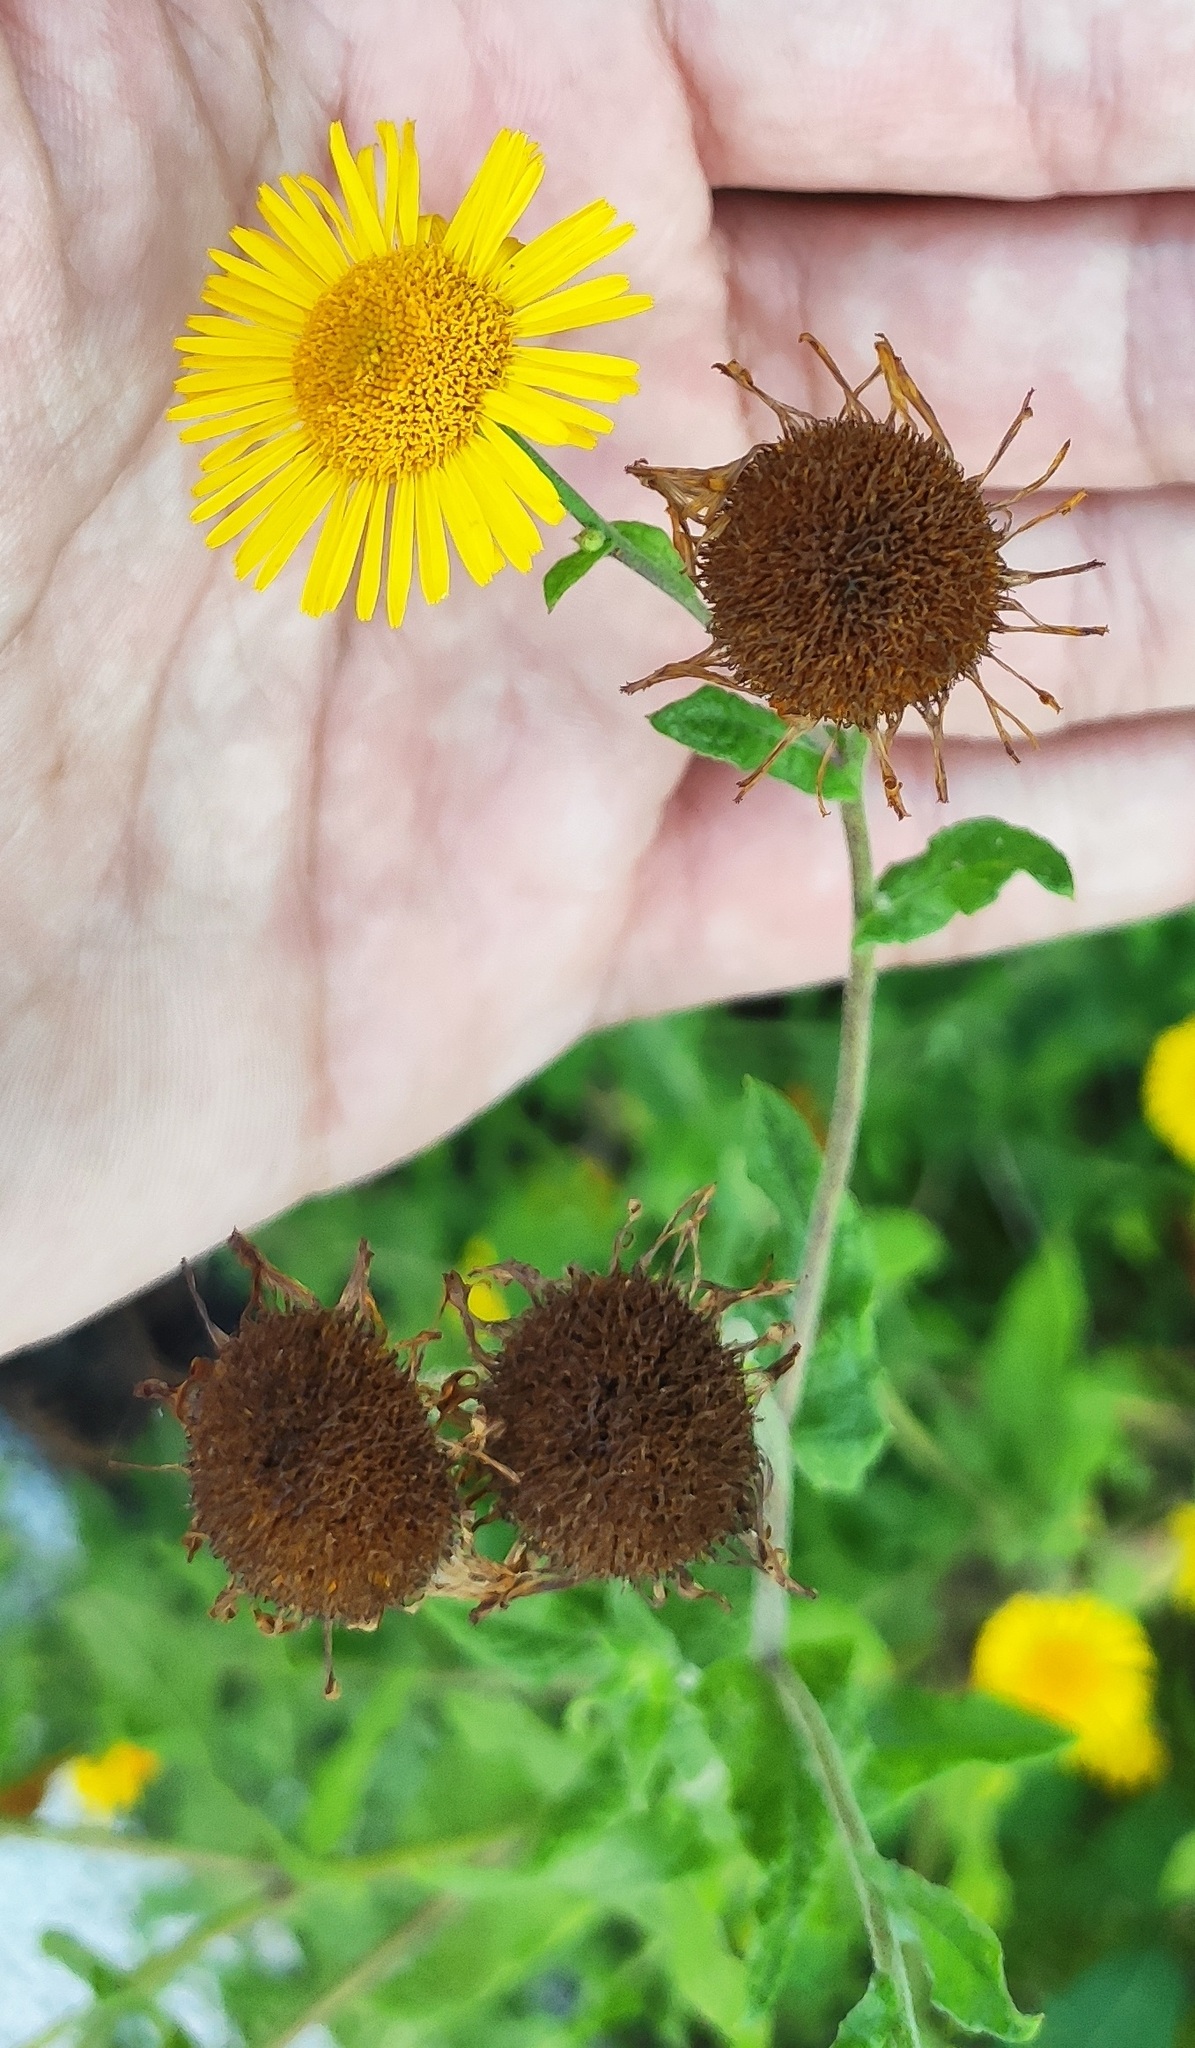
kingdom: Plantae
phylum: Tracheophyta
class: Magnoliopsida
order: Asterales
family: Asteraceae
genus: Pulicaria
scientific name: Pulicaria dysenterica
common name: Common fleabane
